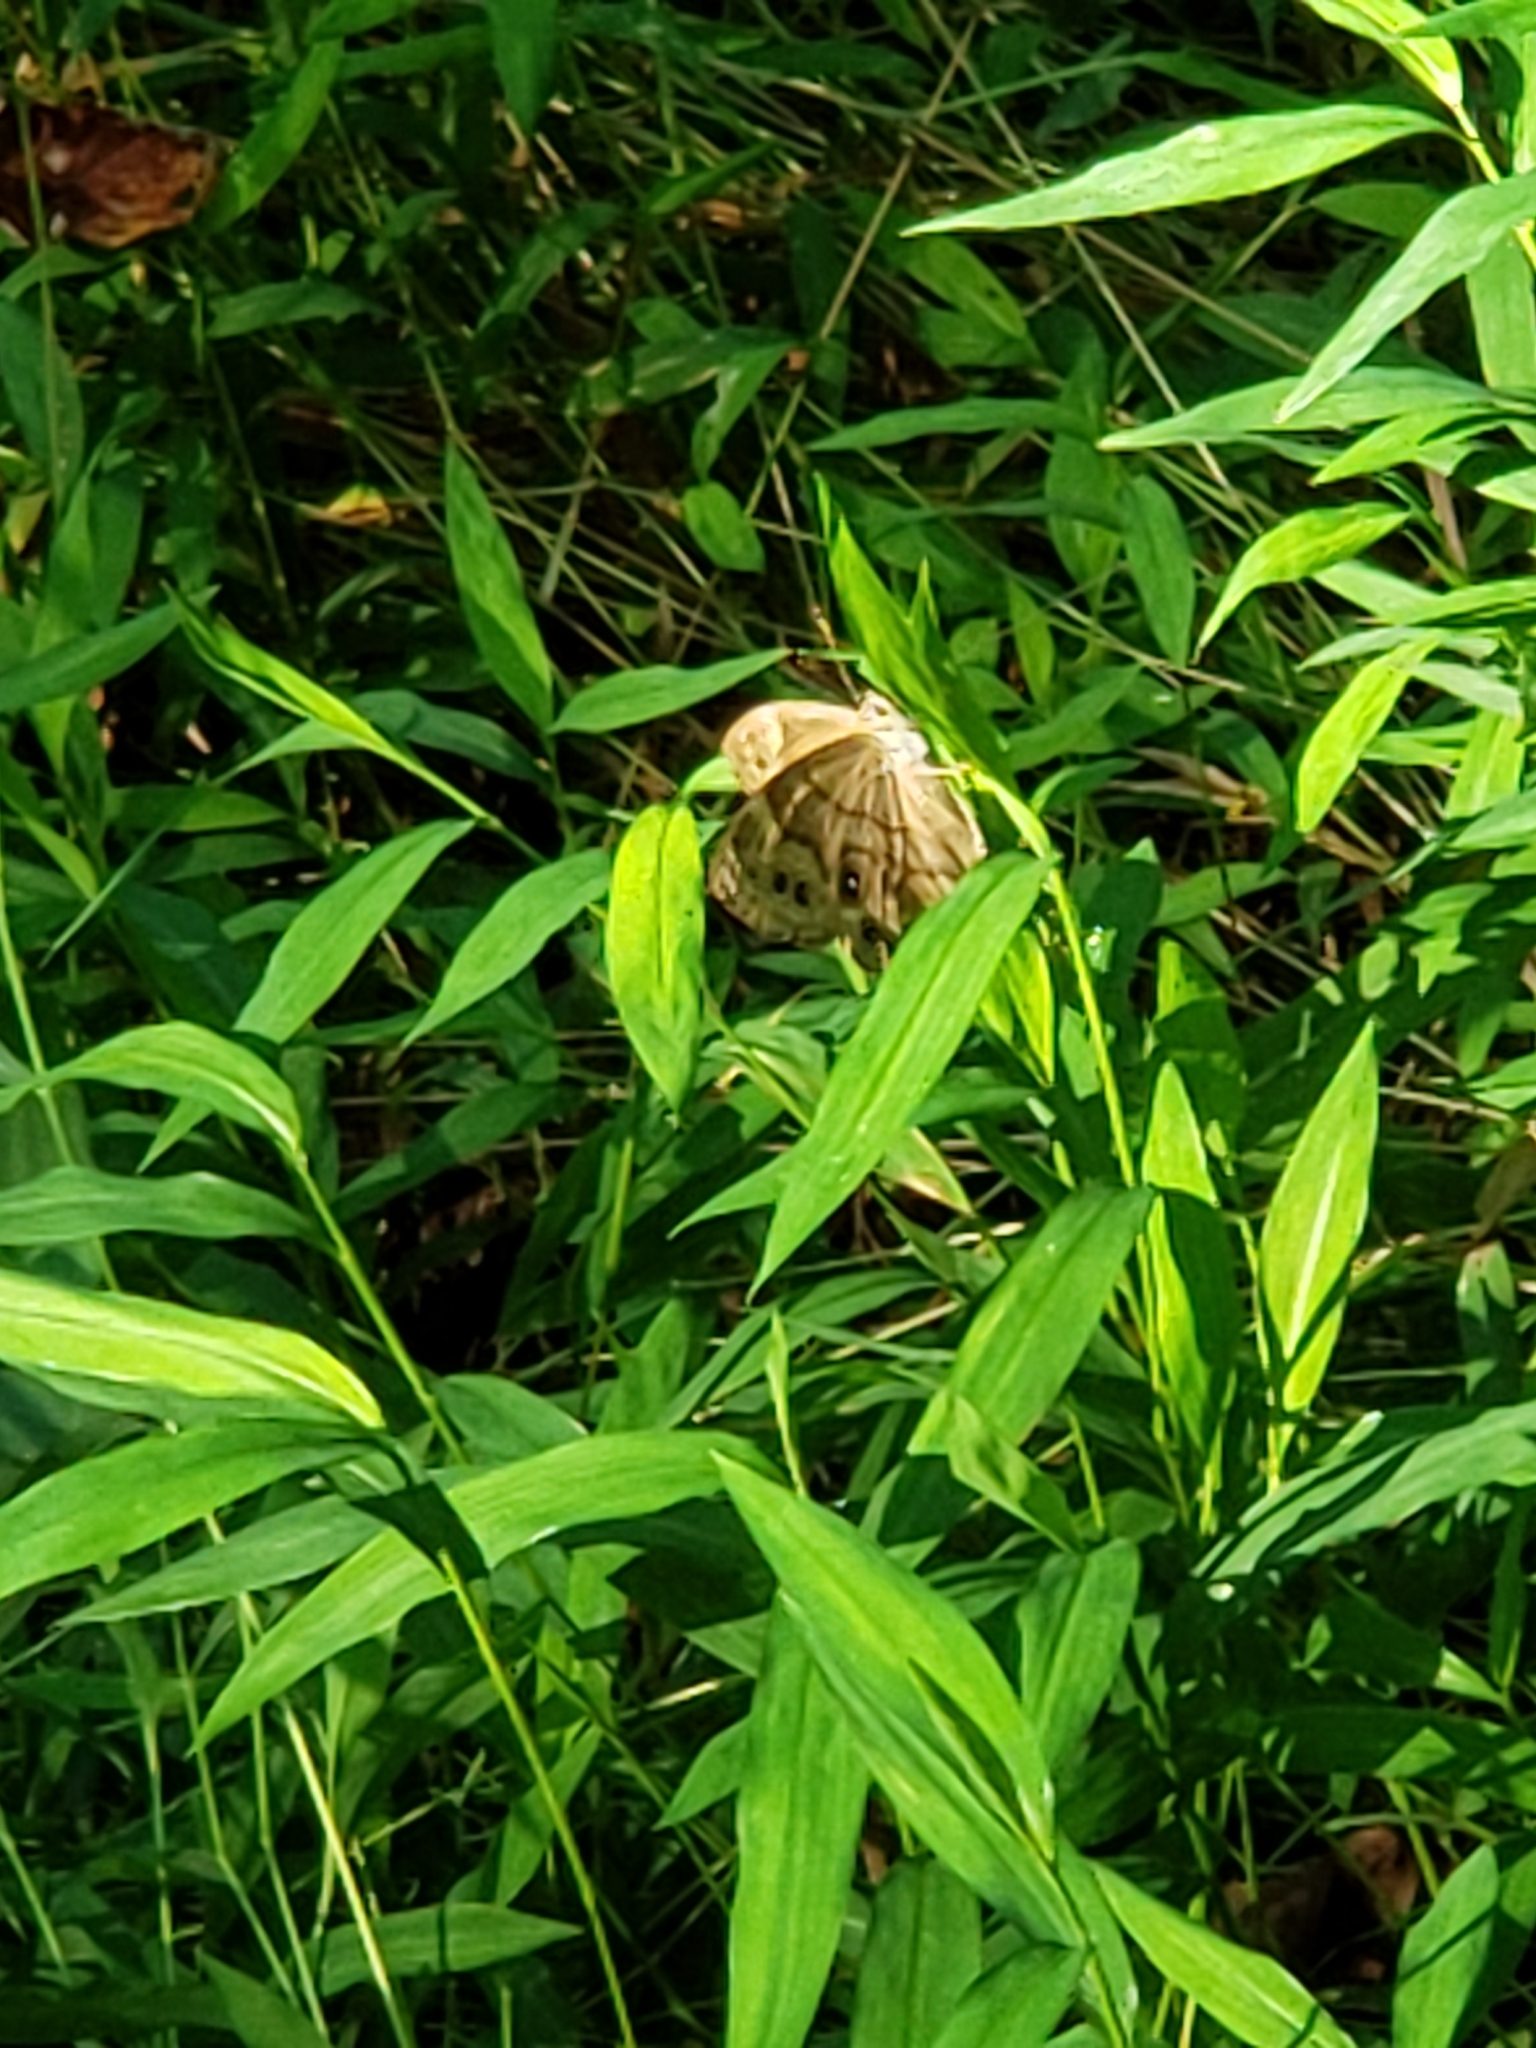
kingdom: Animalia
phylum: Arthropoda
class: Insecta
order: Lepidoptera
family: Nymphalidae
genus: Lethe
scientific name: Lethe anthedon
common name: Northern pearly-eye
